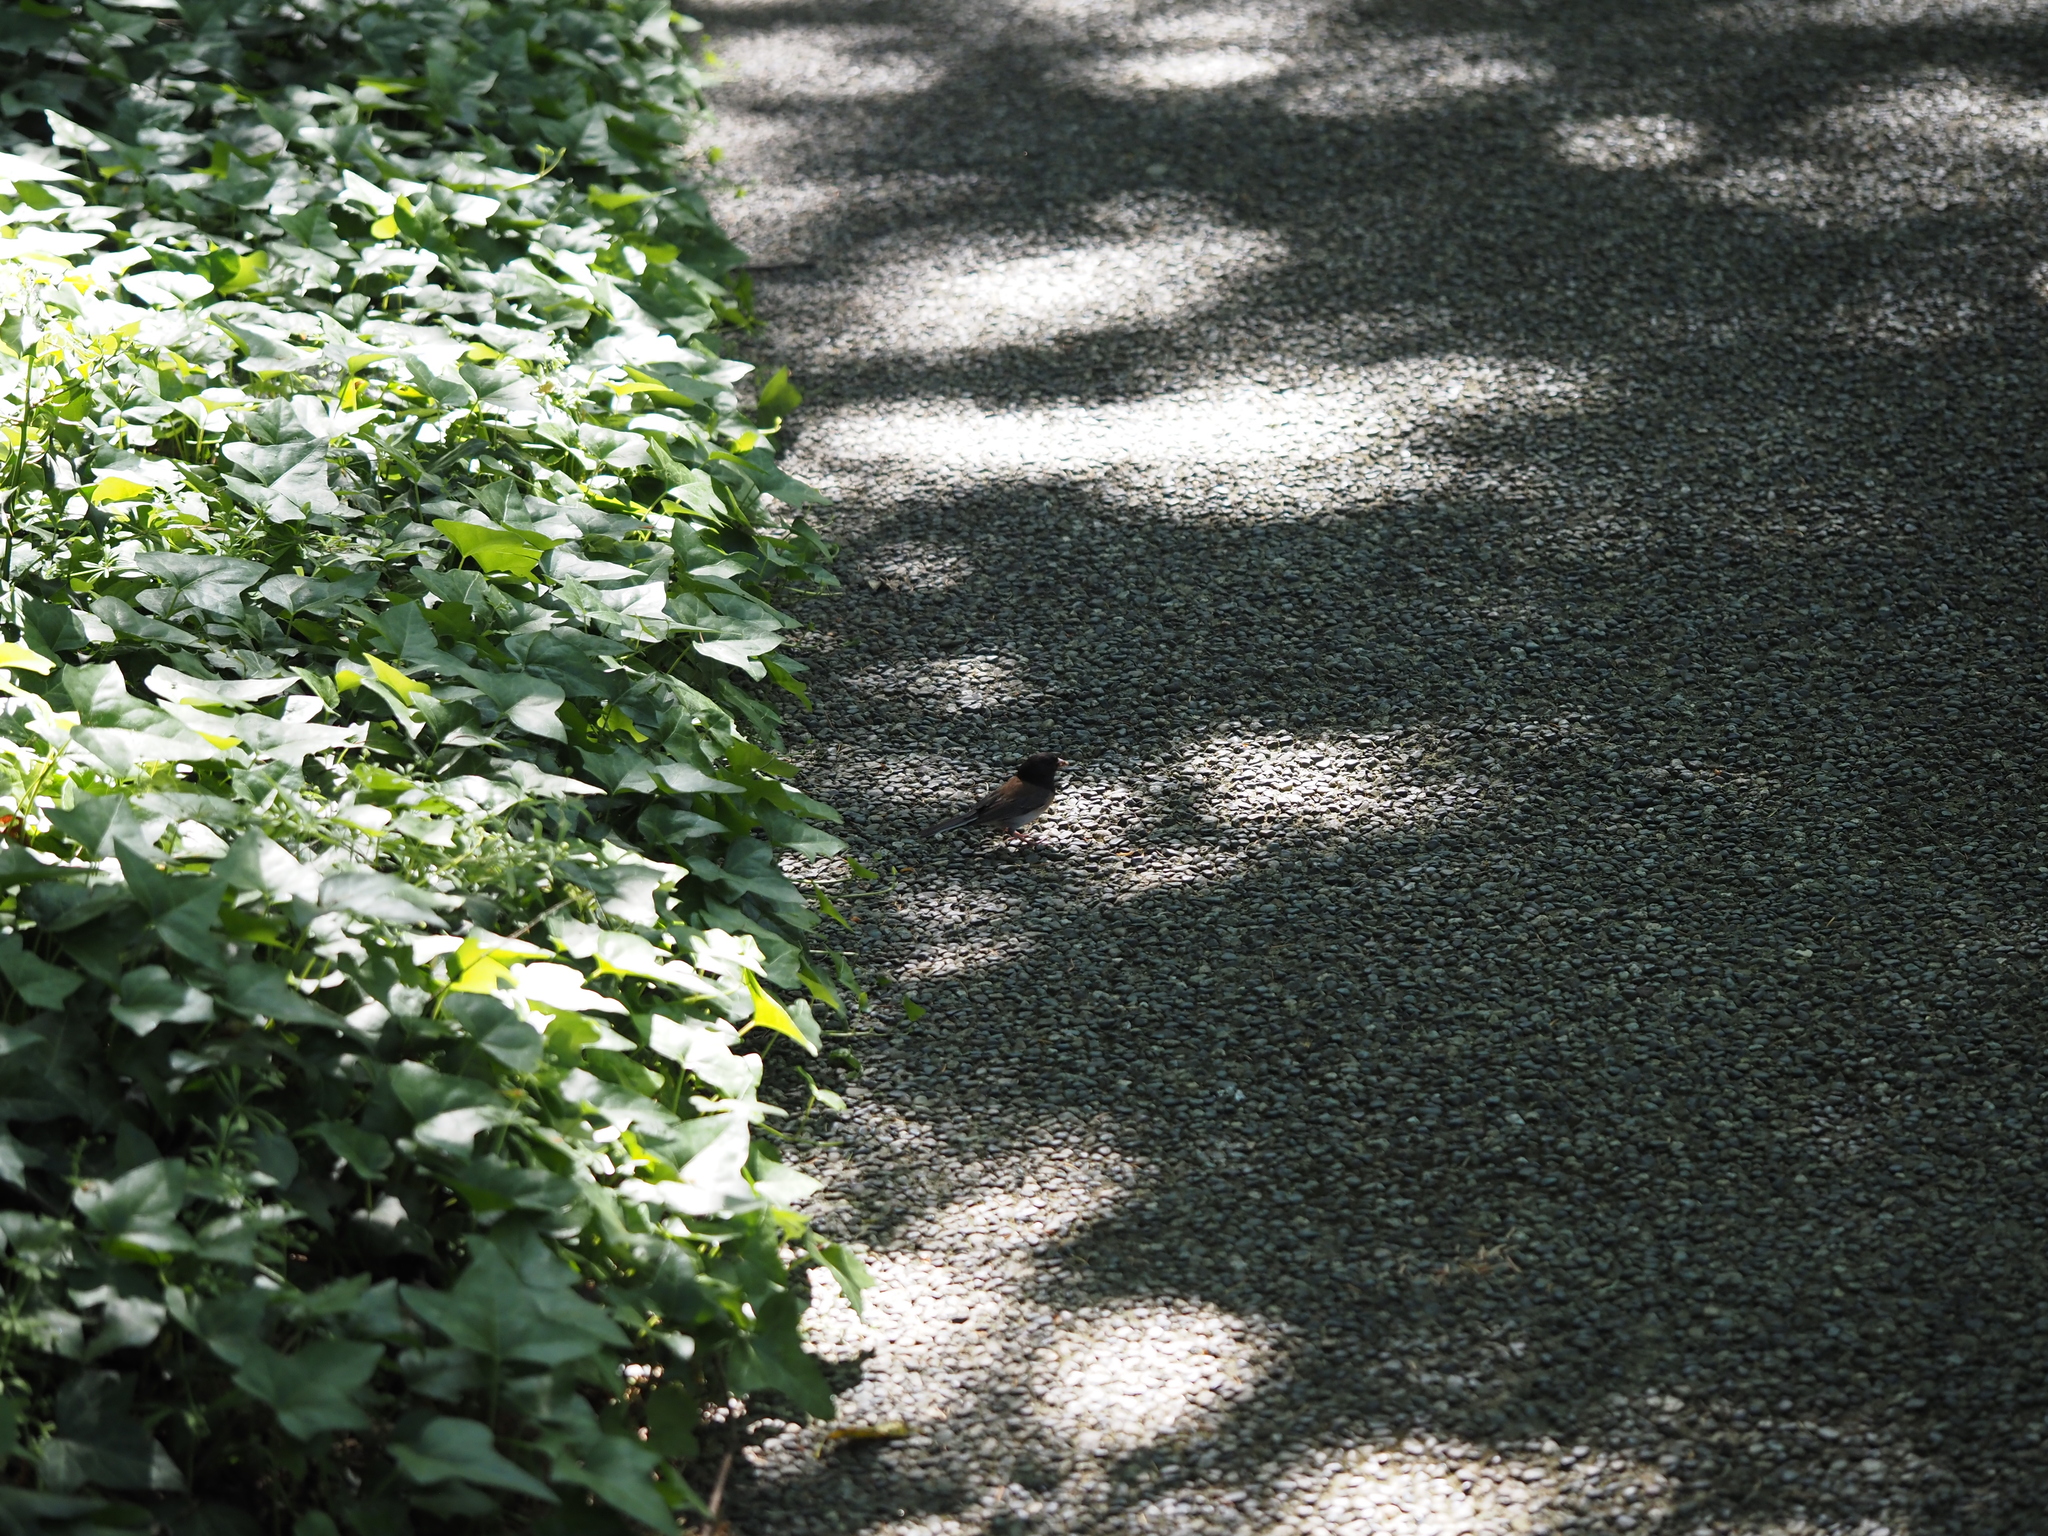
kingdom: Animalia
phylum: Chordata
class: Aves
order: Passeriformes
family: Passerellidae
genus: Junco
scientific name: Junco hyemalis
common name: Dark-eyed junco
